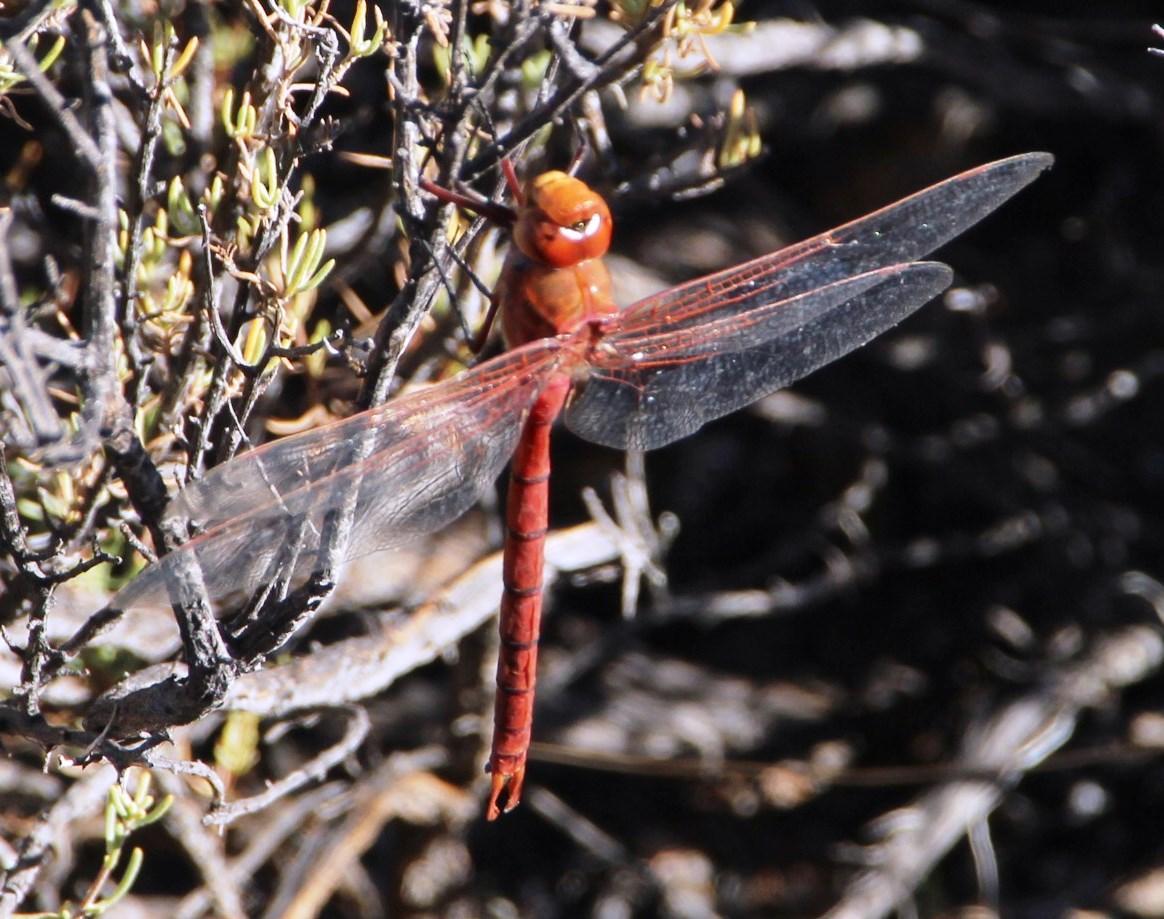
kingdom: Animalia
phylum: Arthropoda
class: Insecta
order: Odonata
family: Aeshnidae
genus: Anax
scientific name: Anax speratus
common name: Orange emperor
